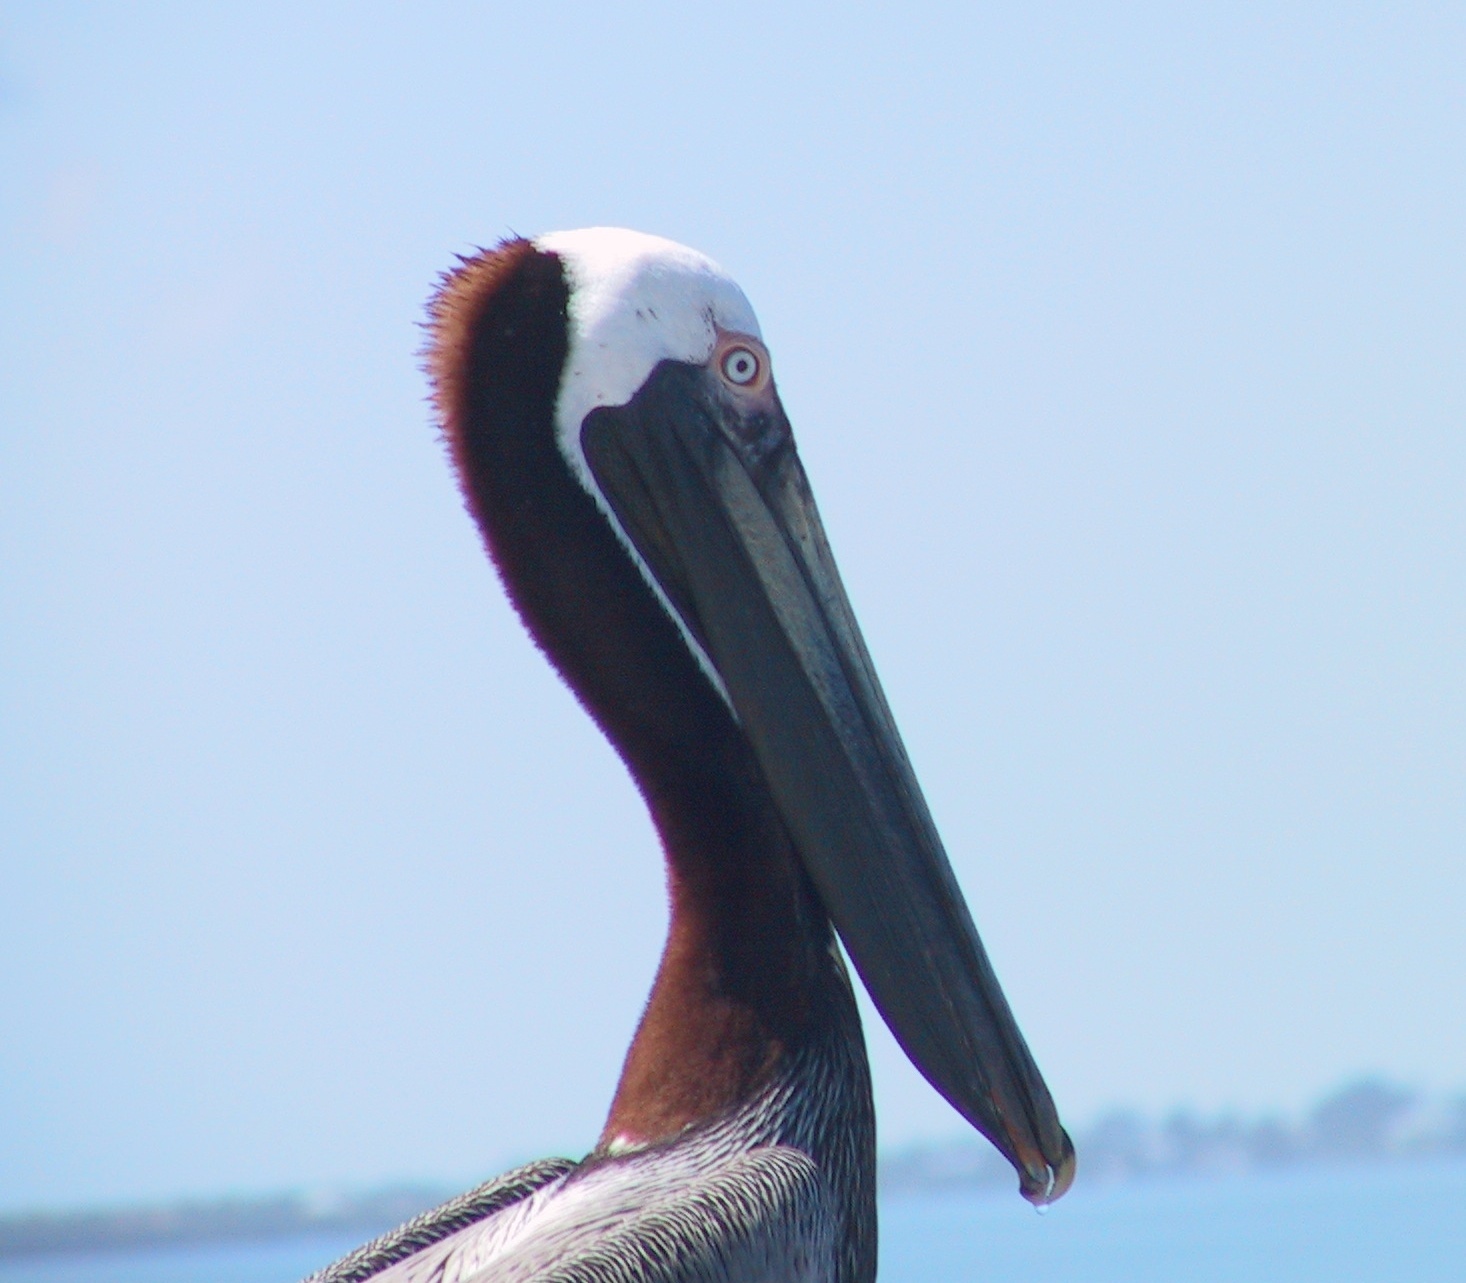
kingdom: Animalia
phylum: Chordata
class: Aves
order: Pelecaniformes
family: Pelecanidae
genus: Pelecanus
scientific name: Pelecanus occidentalis
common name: Brown pelican
